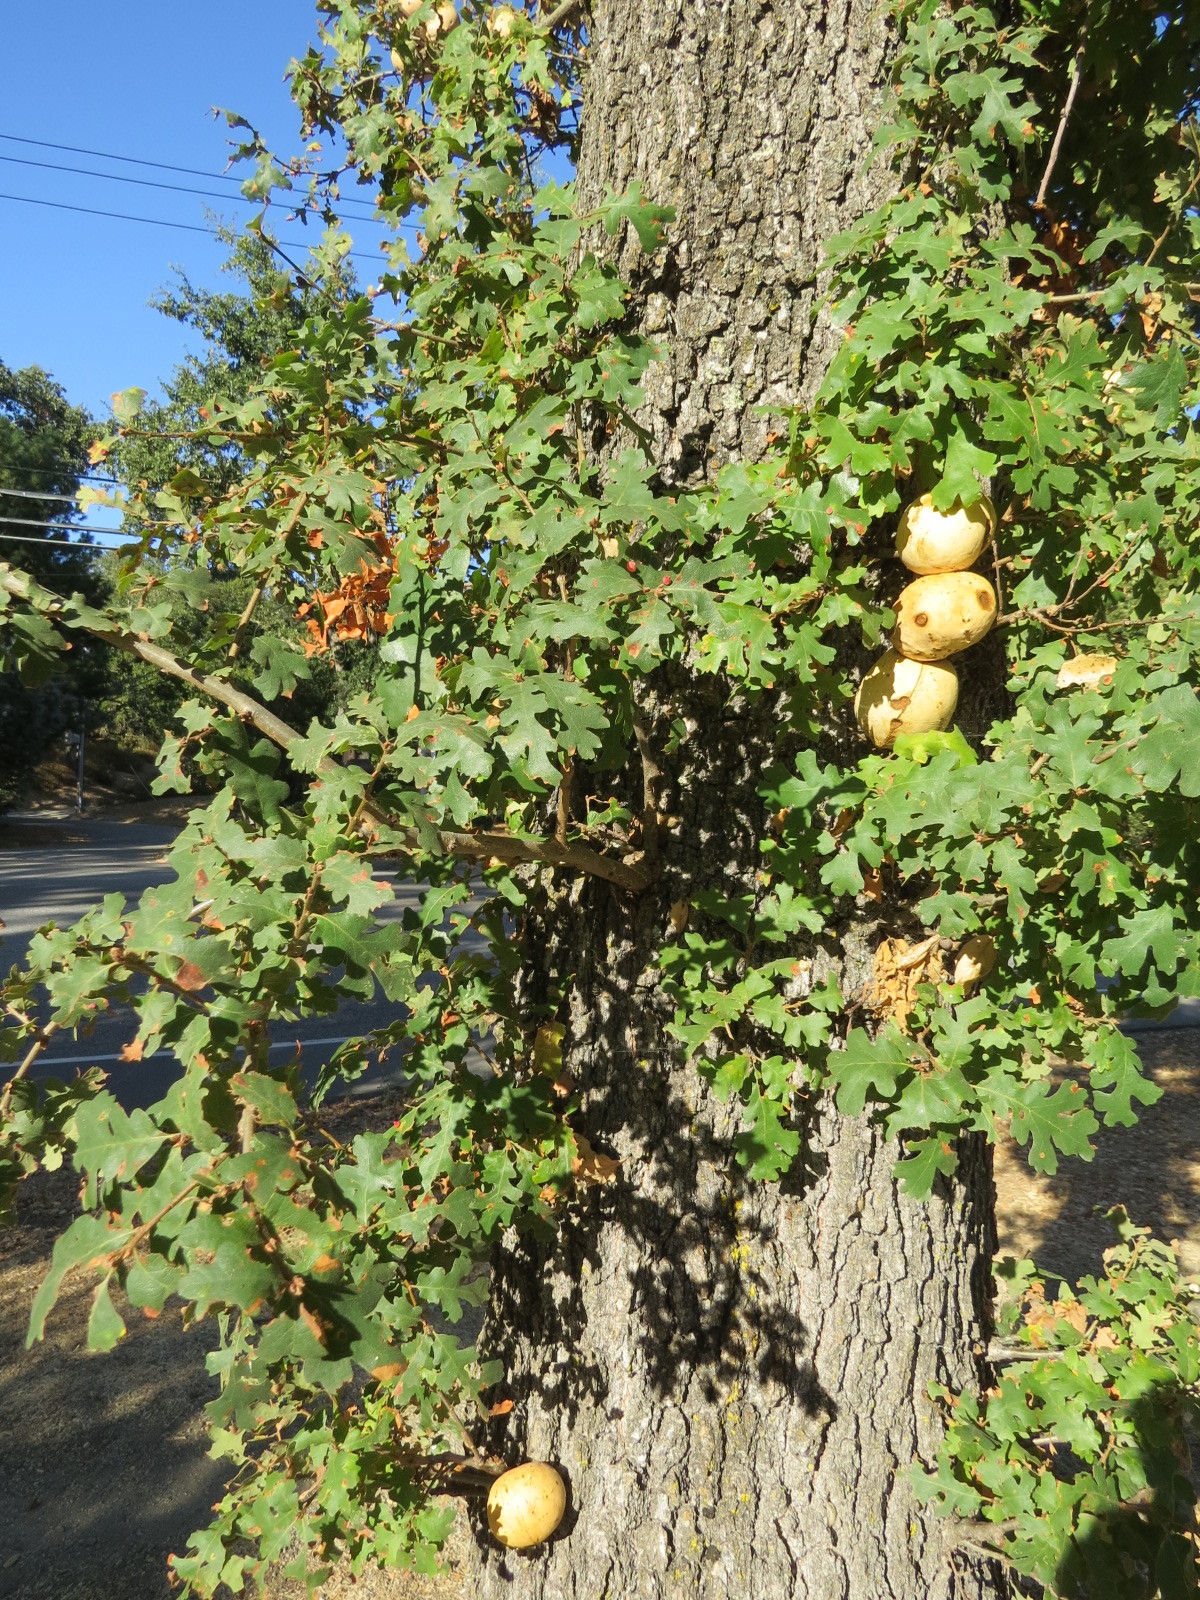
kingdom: Animalia
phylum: Arthropoda
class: Insecta
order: Hymenoptera
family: Cynipidae
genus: Andricus
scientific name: Andricus quercuscalifornicus
